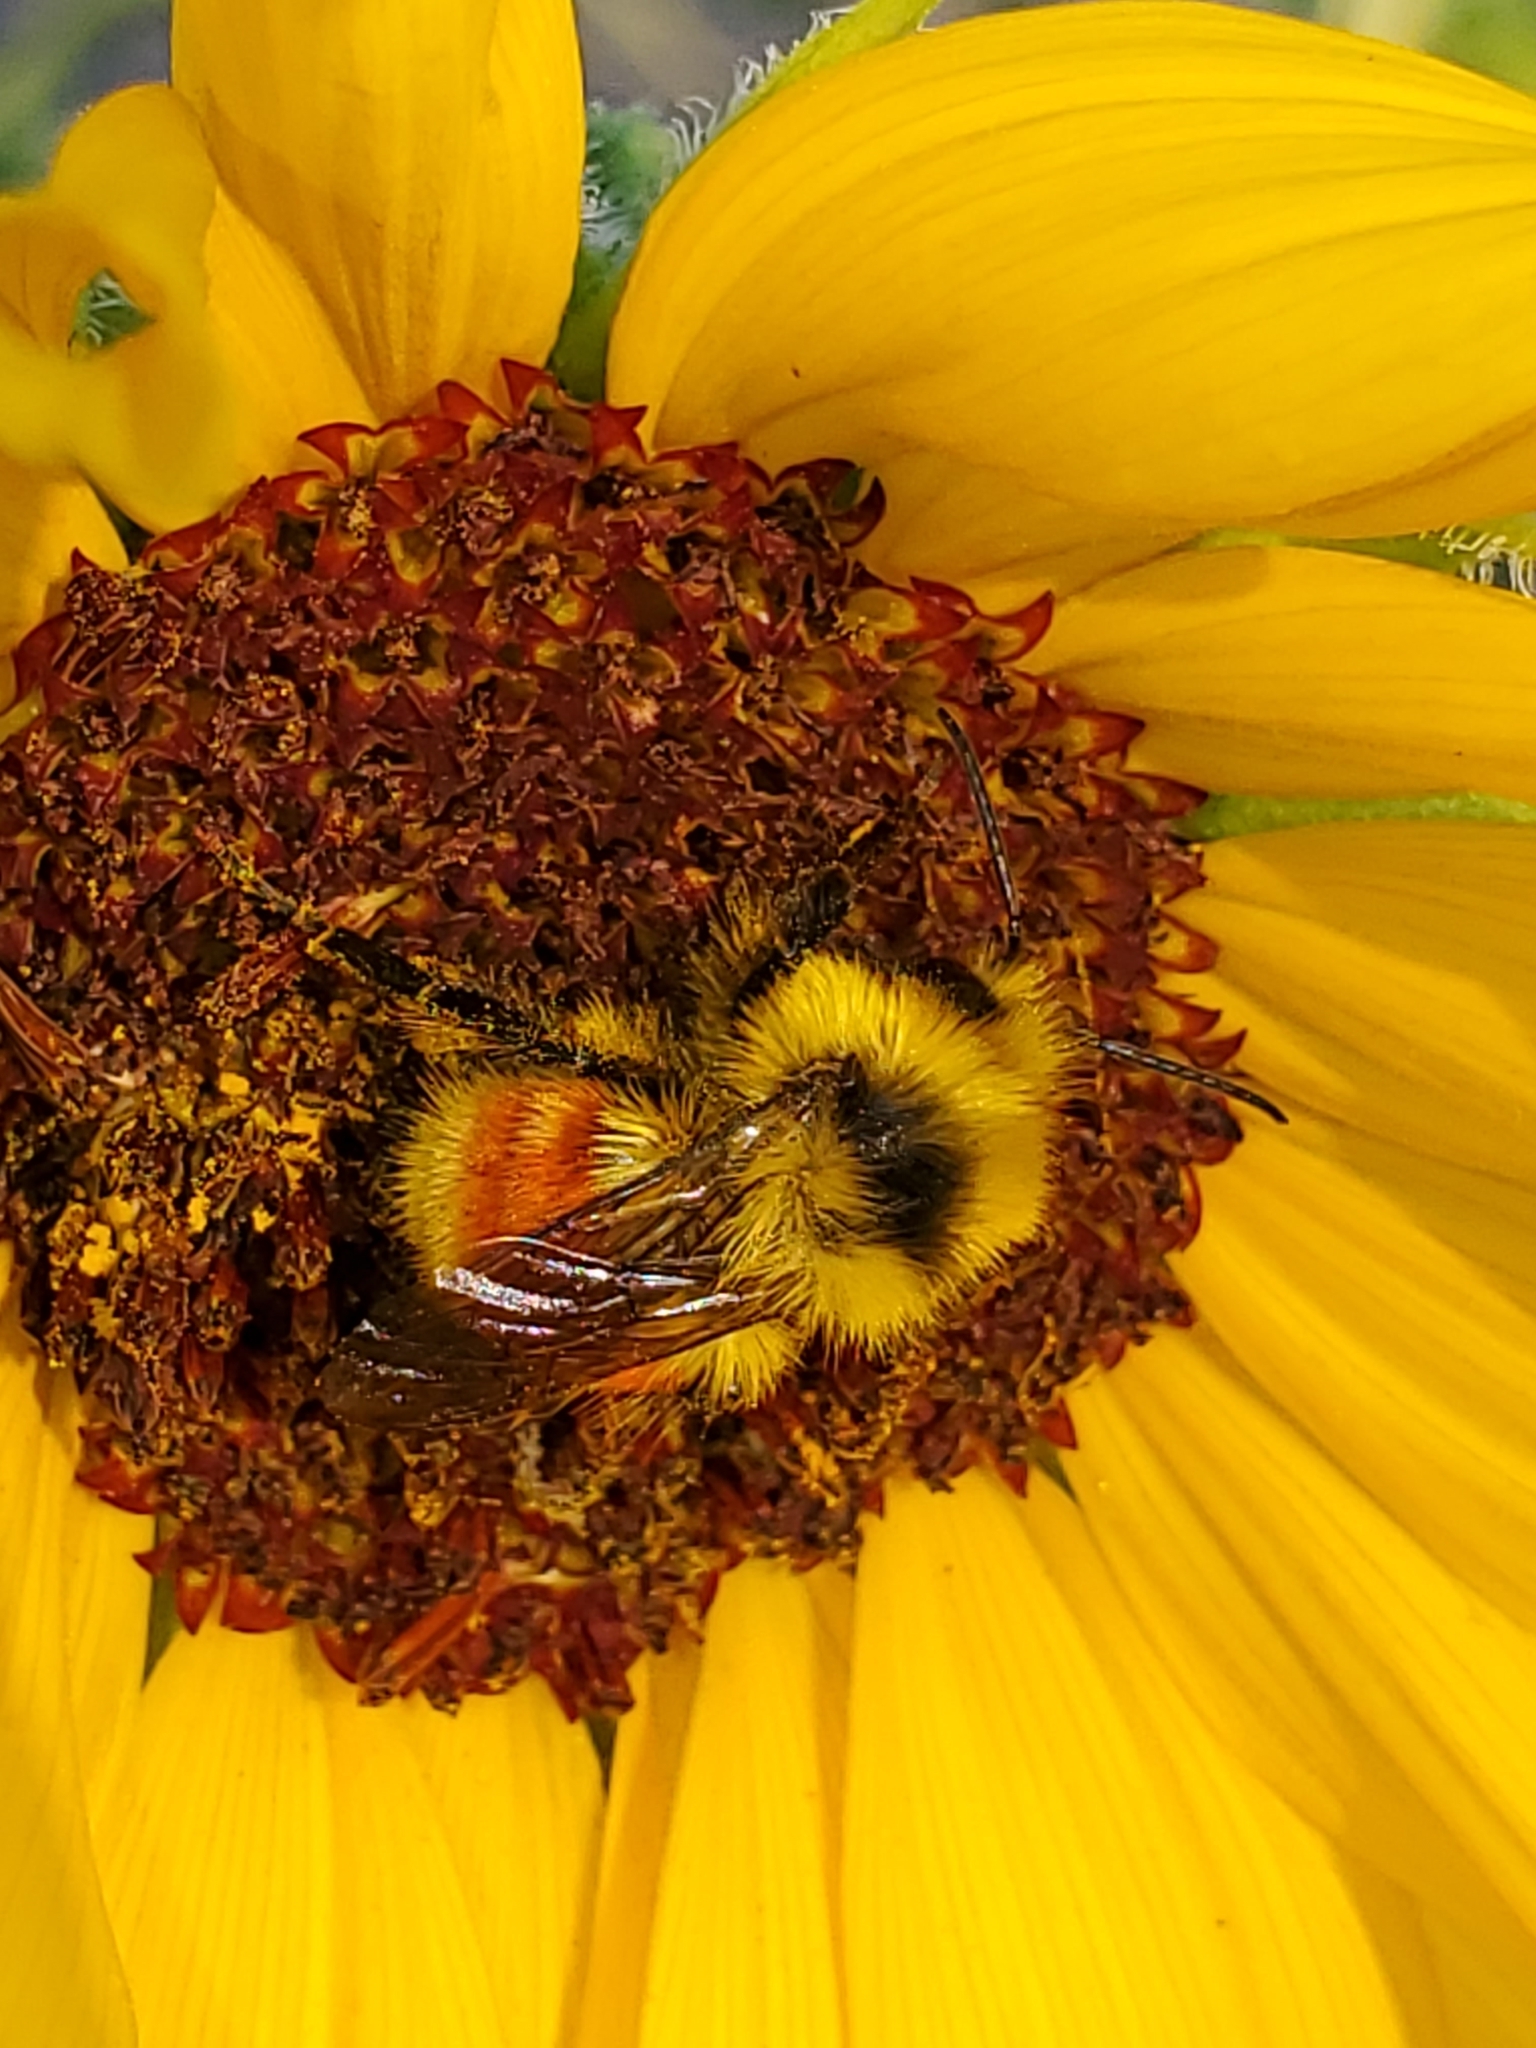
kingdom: Animalia
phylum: Arthropoda
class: Insecta
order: Hymenoptera
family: Apidae
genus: Bombus
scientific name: Bombus huntii
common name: Hunt bumble bee
